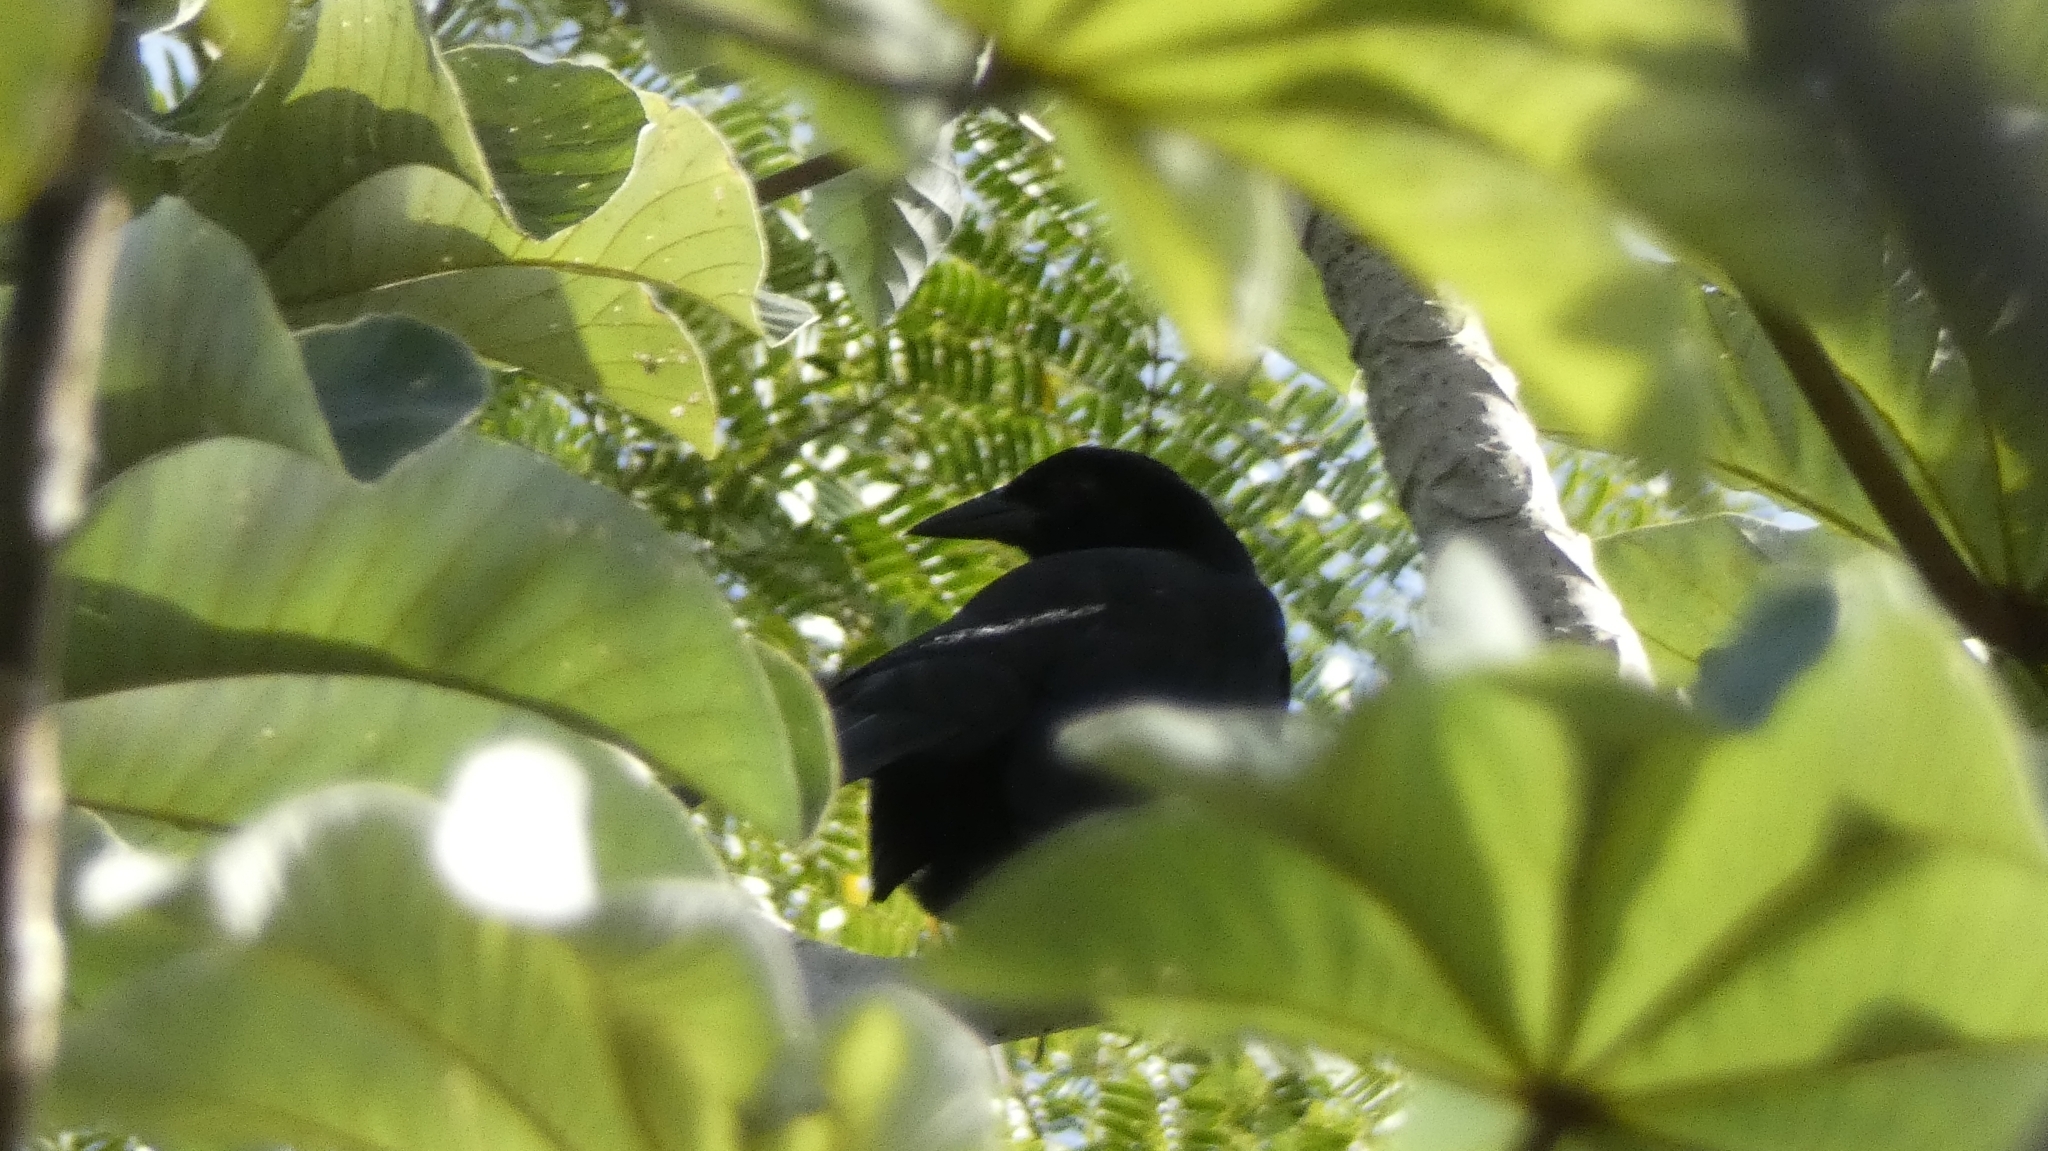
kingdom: Animalia
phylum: Chordata
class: Aves
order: Passeriformes
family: Icteridae
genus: Dives
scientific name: Dives dives
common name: Melodious blackbird
